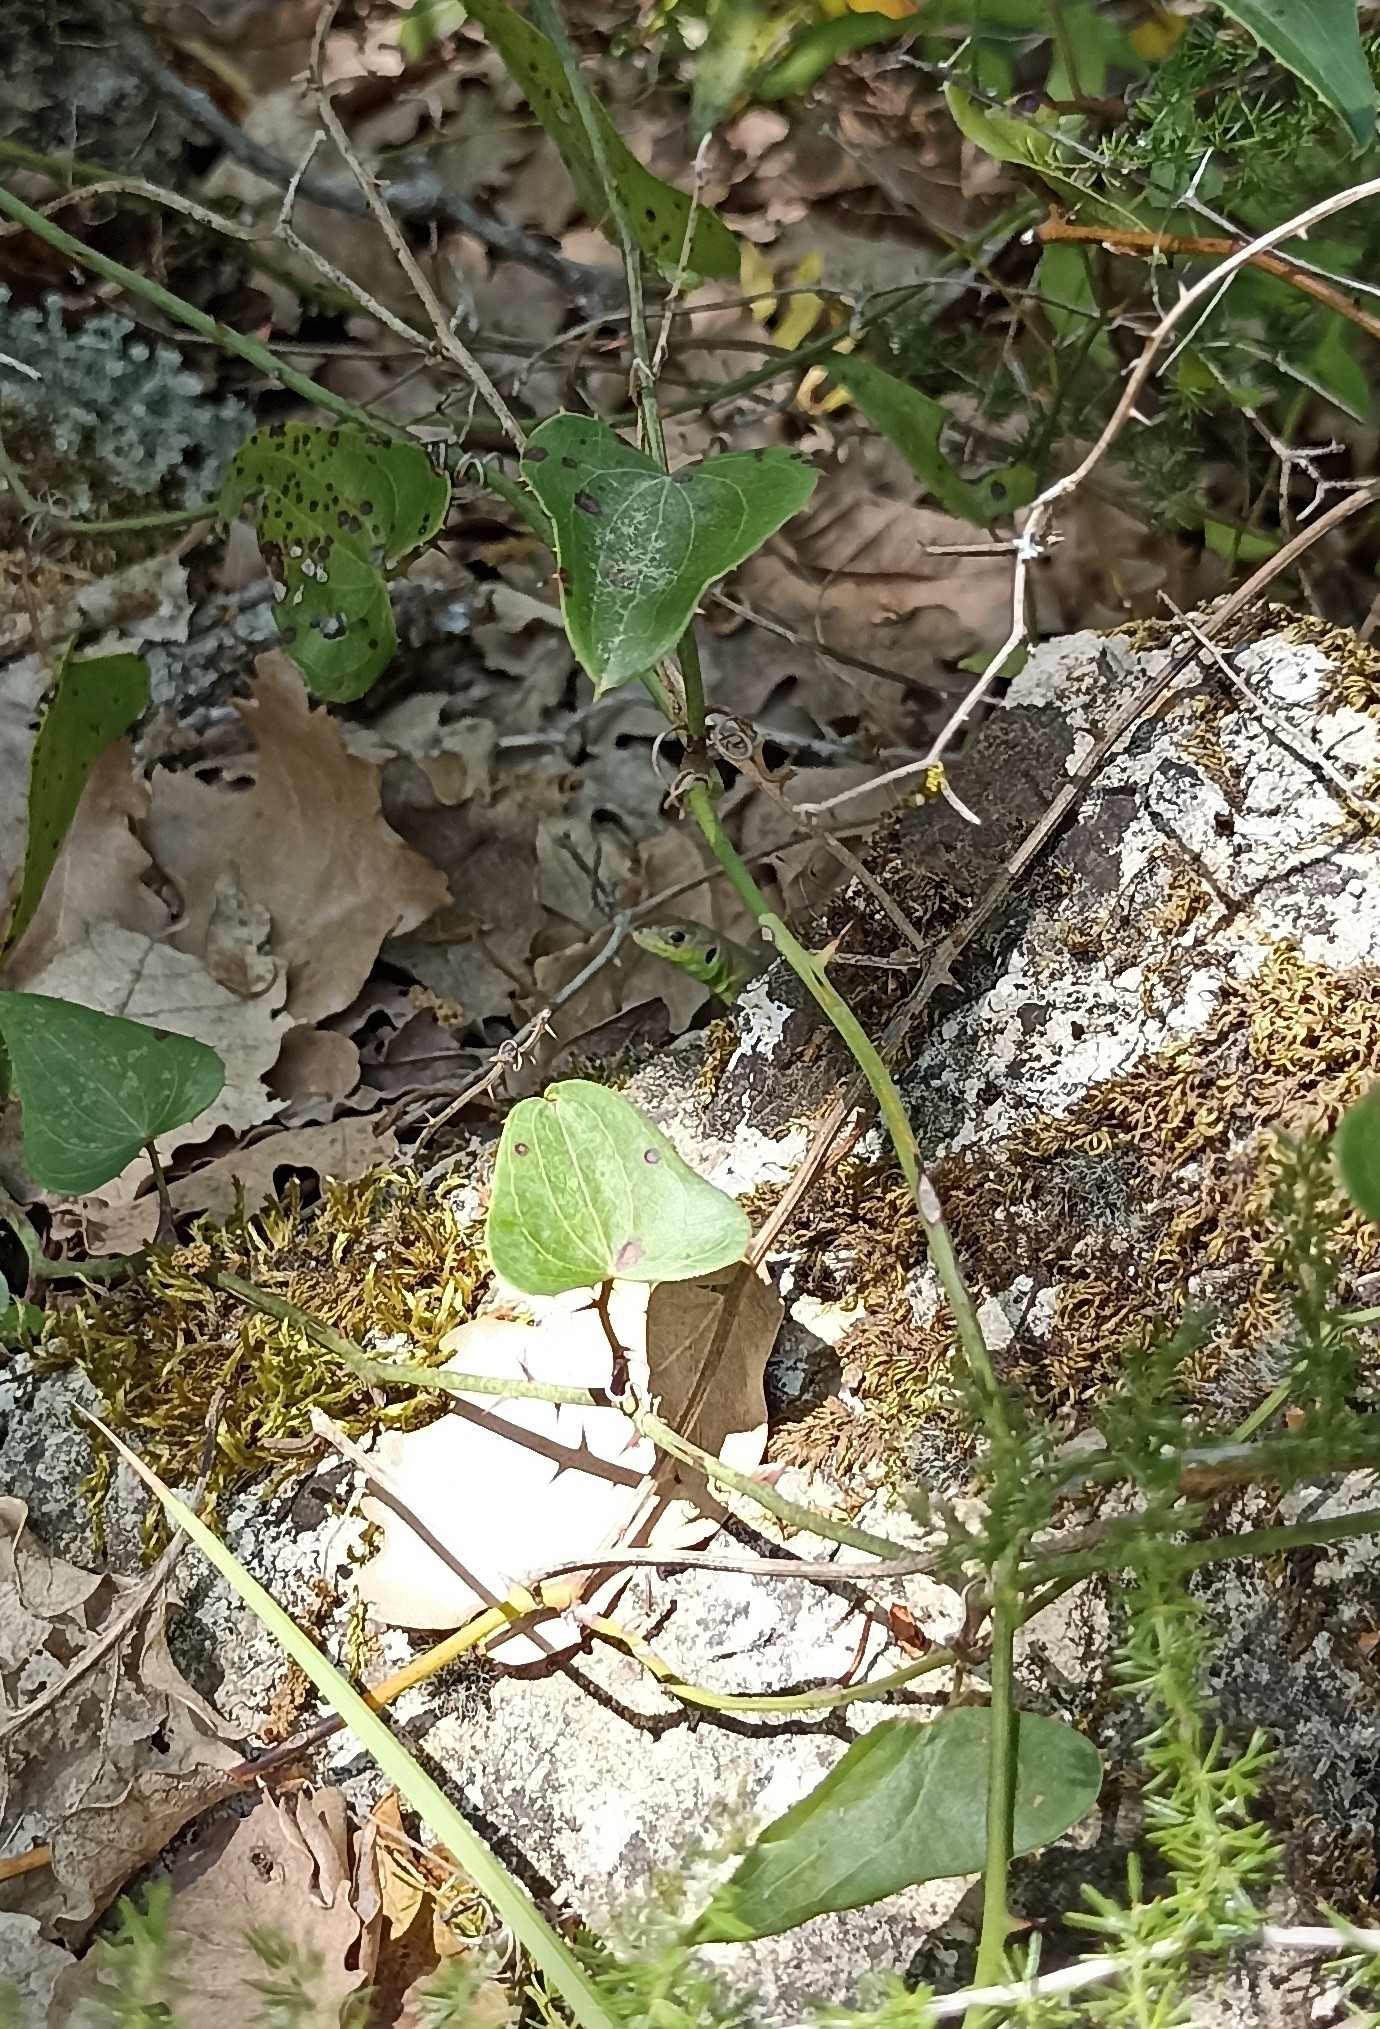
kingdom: Animalia
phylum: Chordata
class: Squamata
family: Lacertidae
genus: Lacerta
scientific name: Lacerta bilineata
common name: Western green lizard
